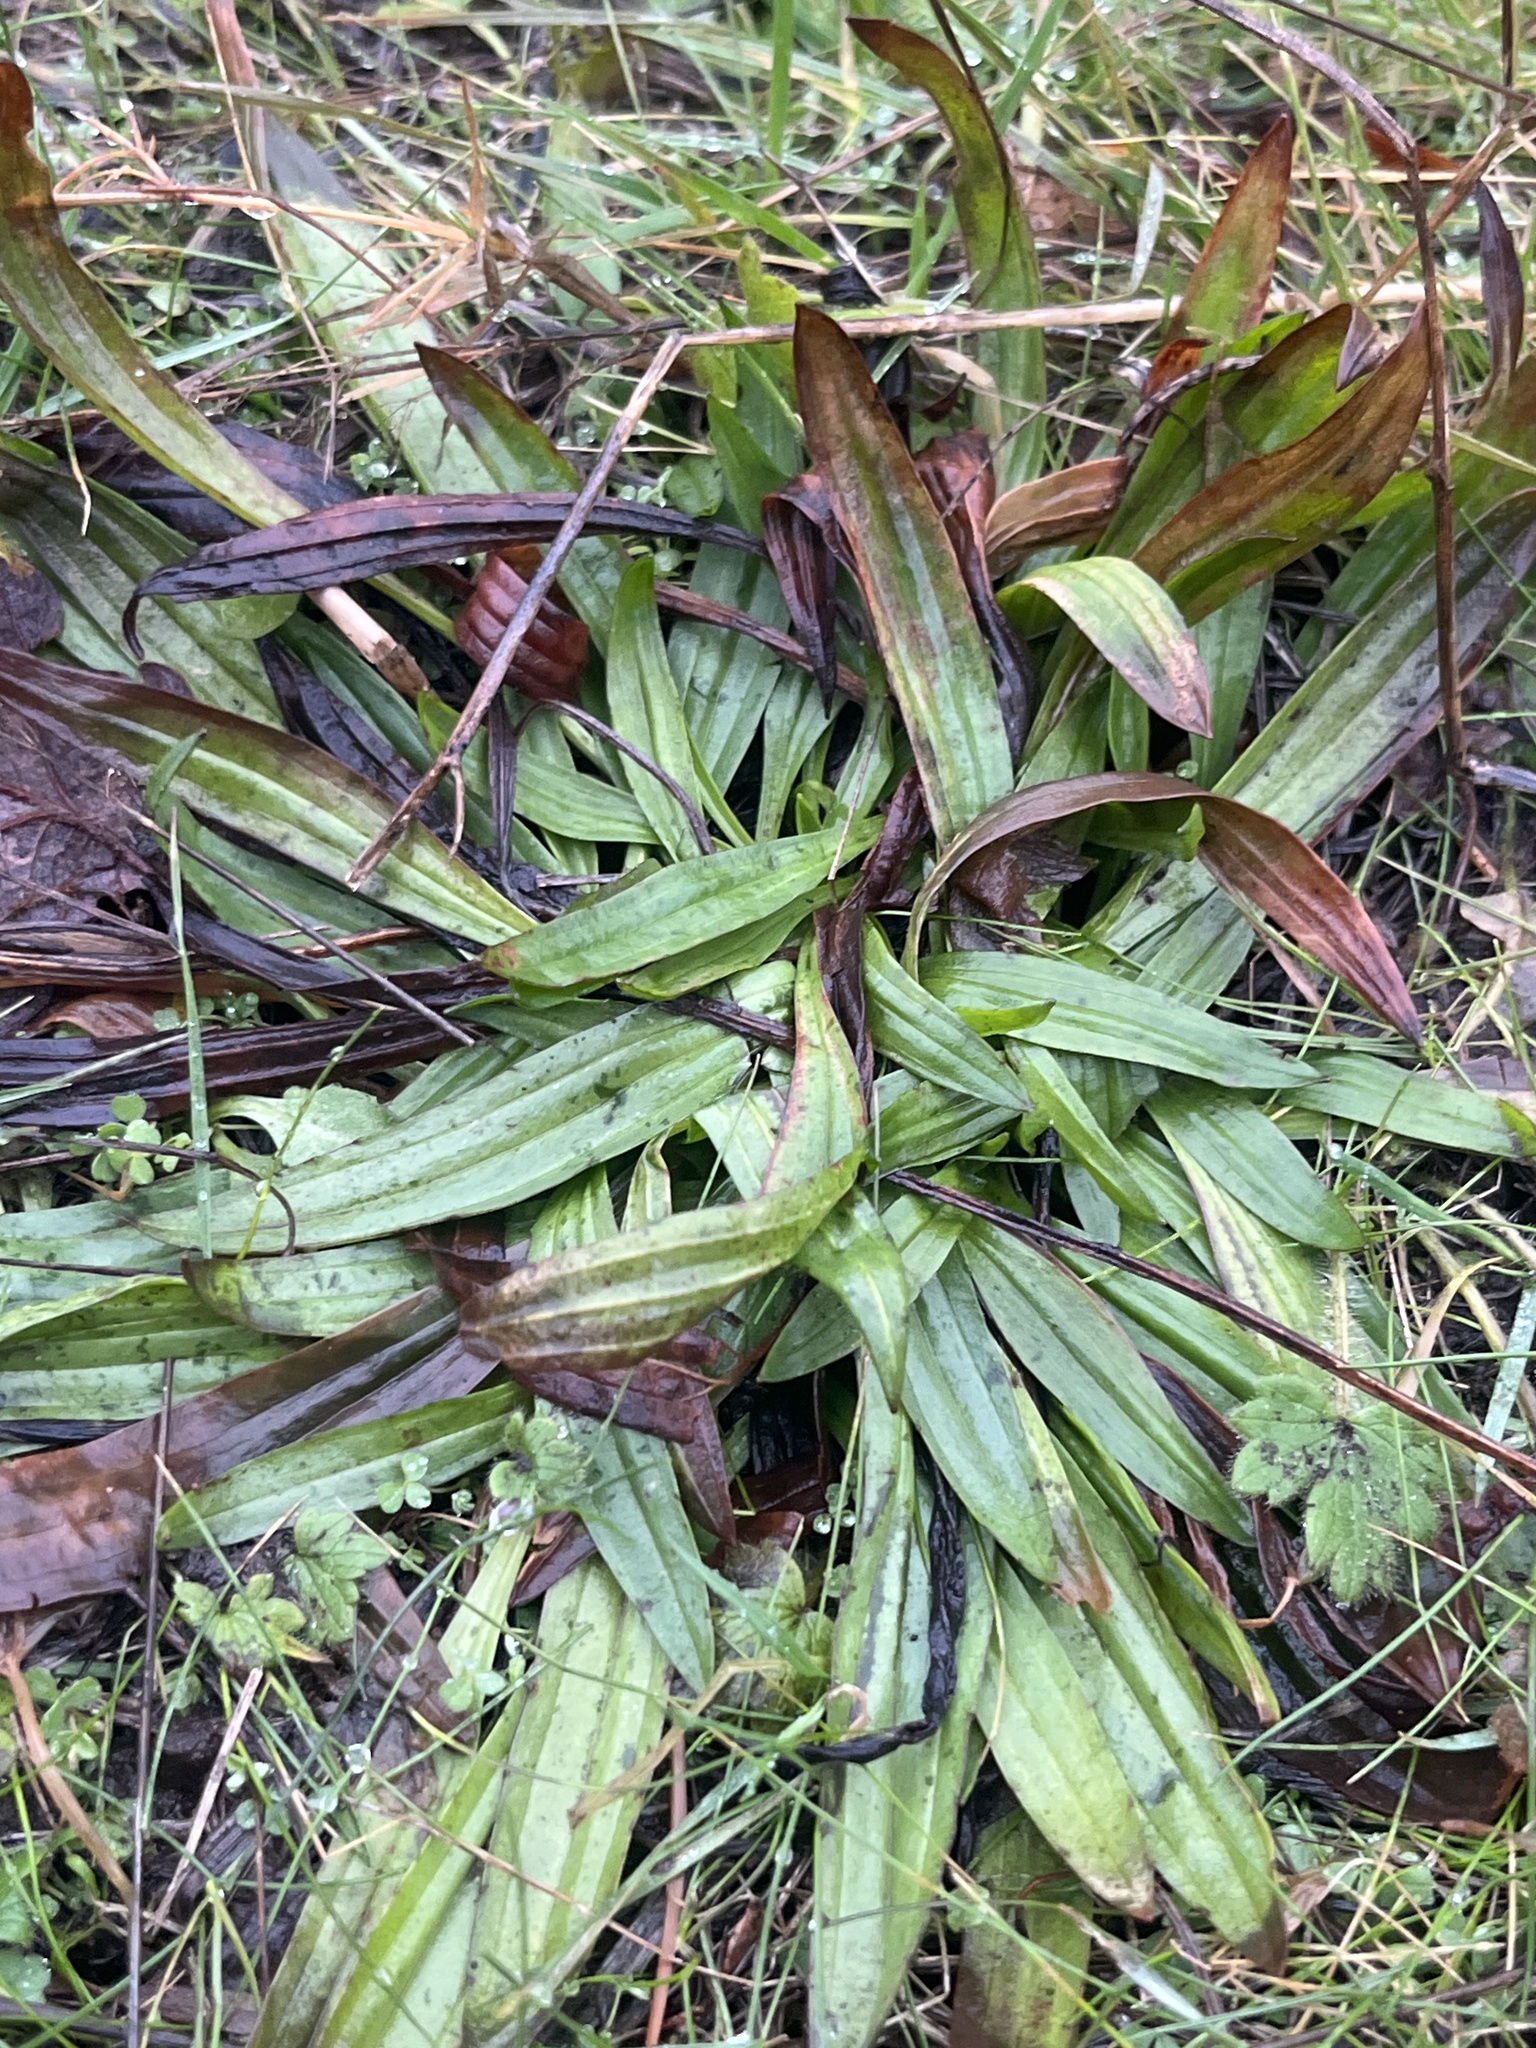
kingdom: Plantae
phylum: Tracheophyta
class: Magnoliopsida
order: Lamiales
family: Plantaginaceae
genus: Plantago
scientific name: Plantago lanceolata
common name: Ribwort plantain
